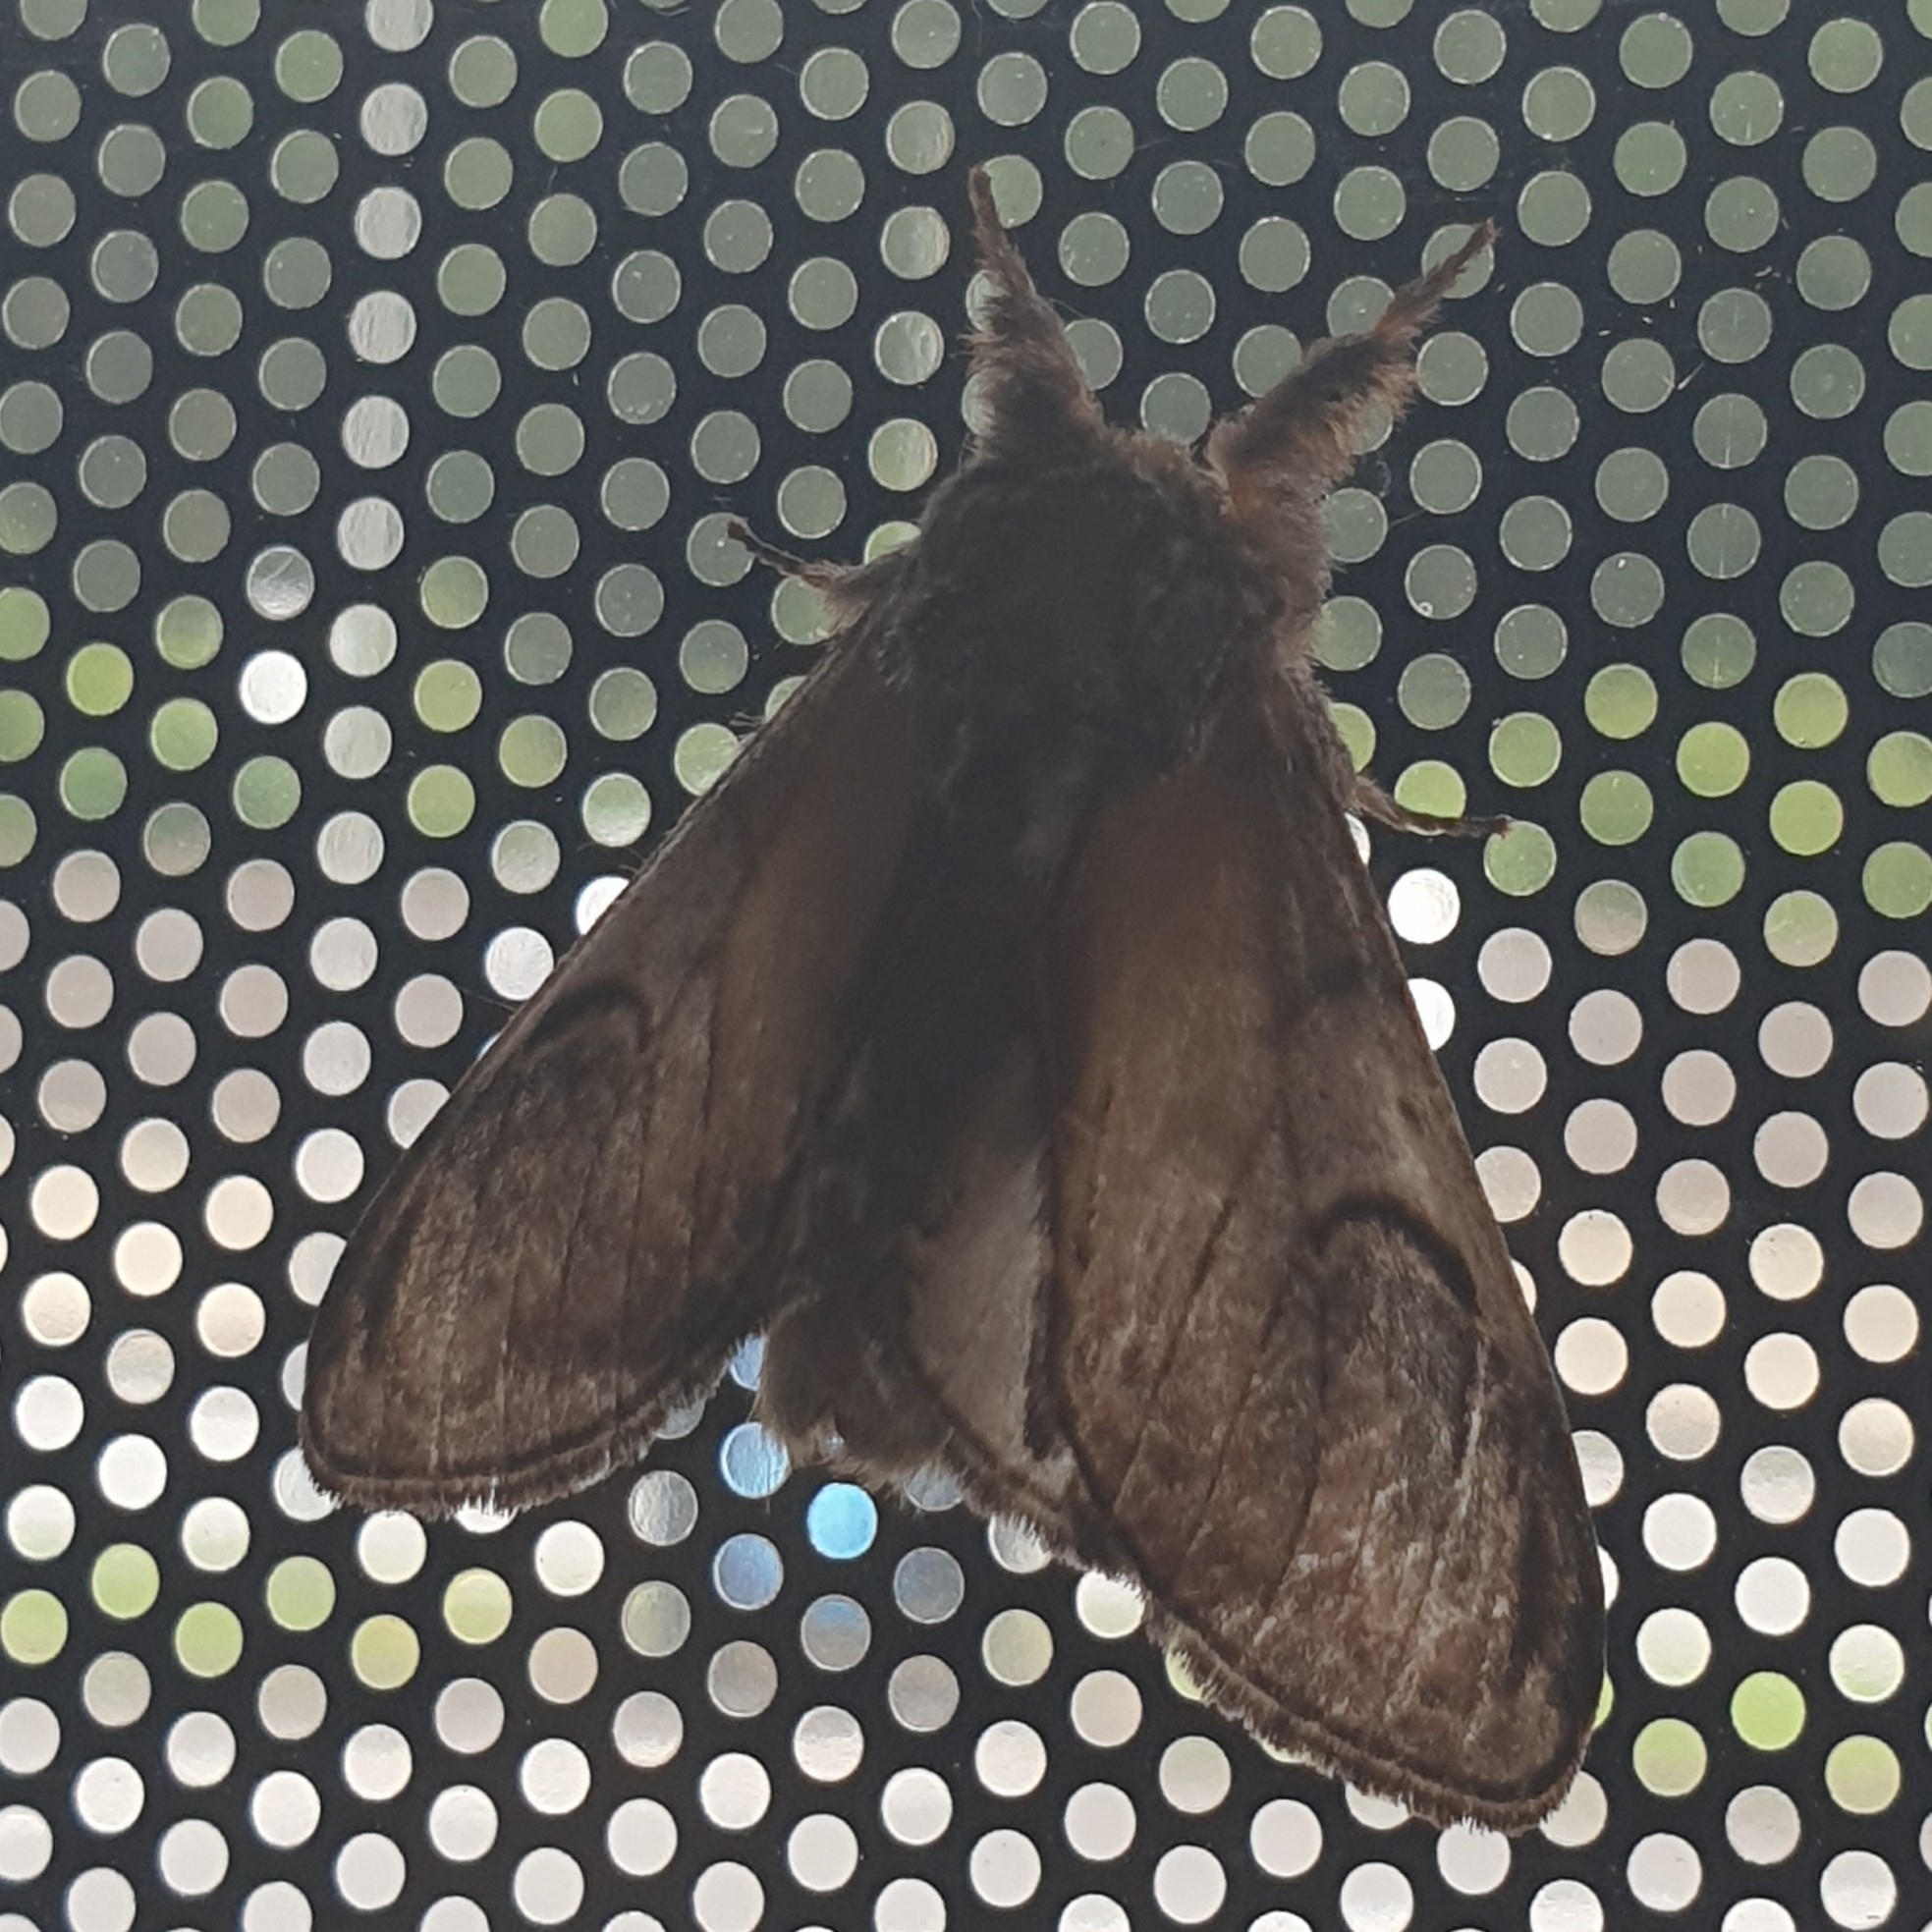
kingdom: Animalia
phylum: Arthropoda
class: Insecta
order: Lepidoptera
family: Notodontidae
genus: Notodonta
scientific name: Notodonta ziczac
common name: Pebble prominent
